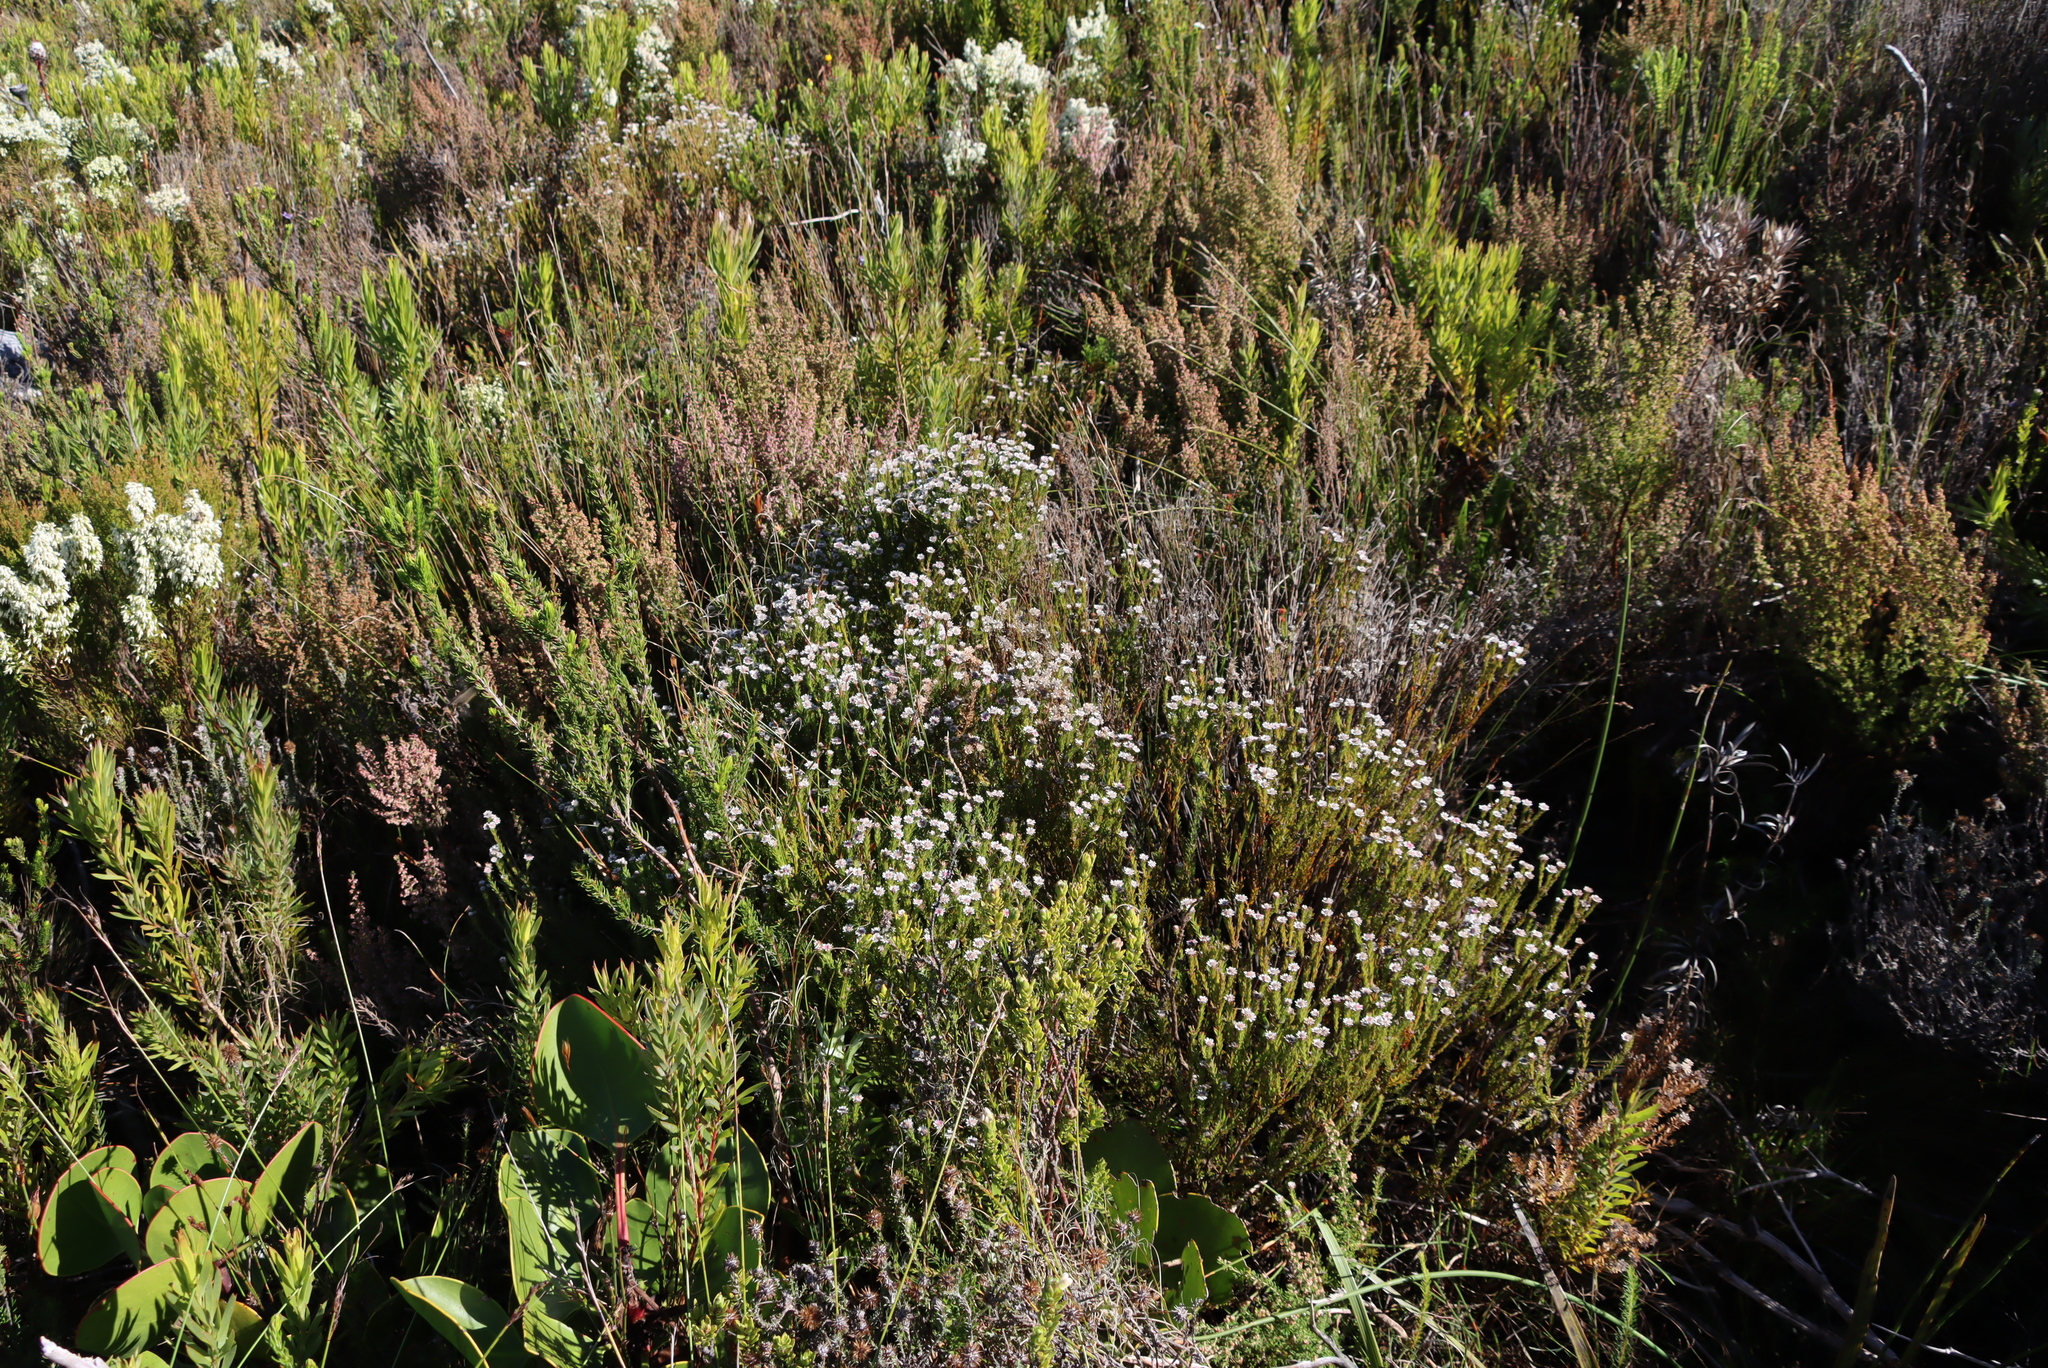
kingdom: Plantae
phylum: Tracheophyta
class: Magnoliopsida
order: Bruniales
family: Bruniaceae
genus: Staavia
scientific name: Staavia radiata
